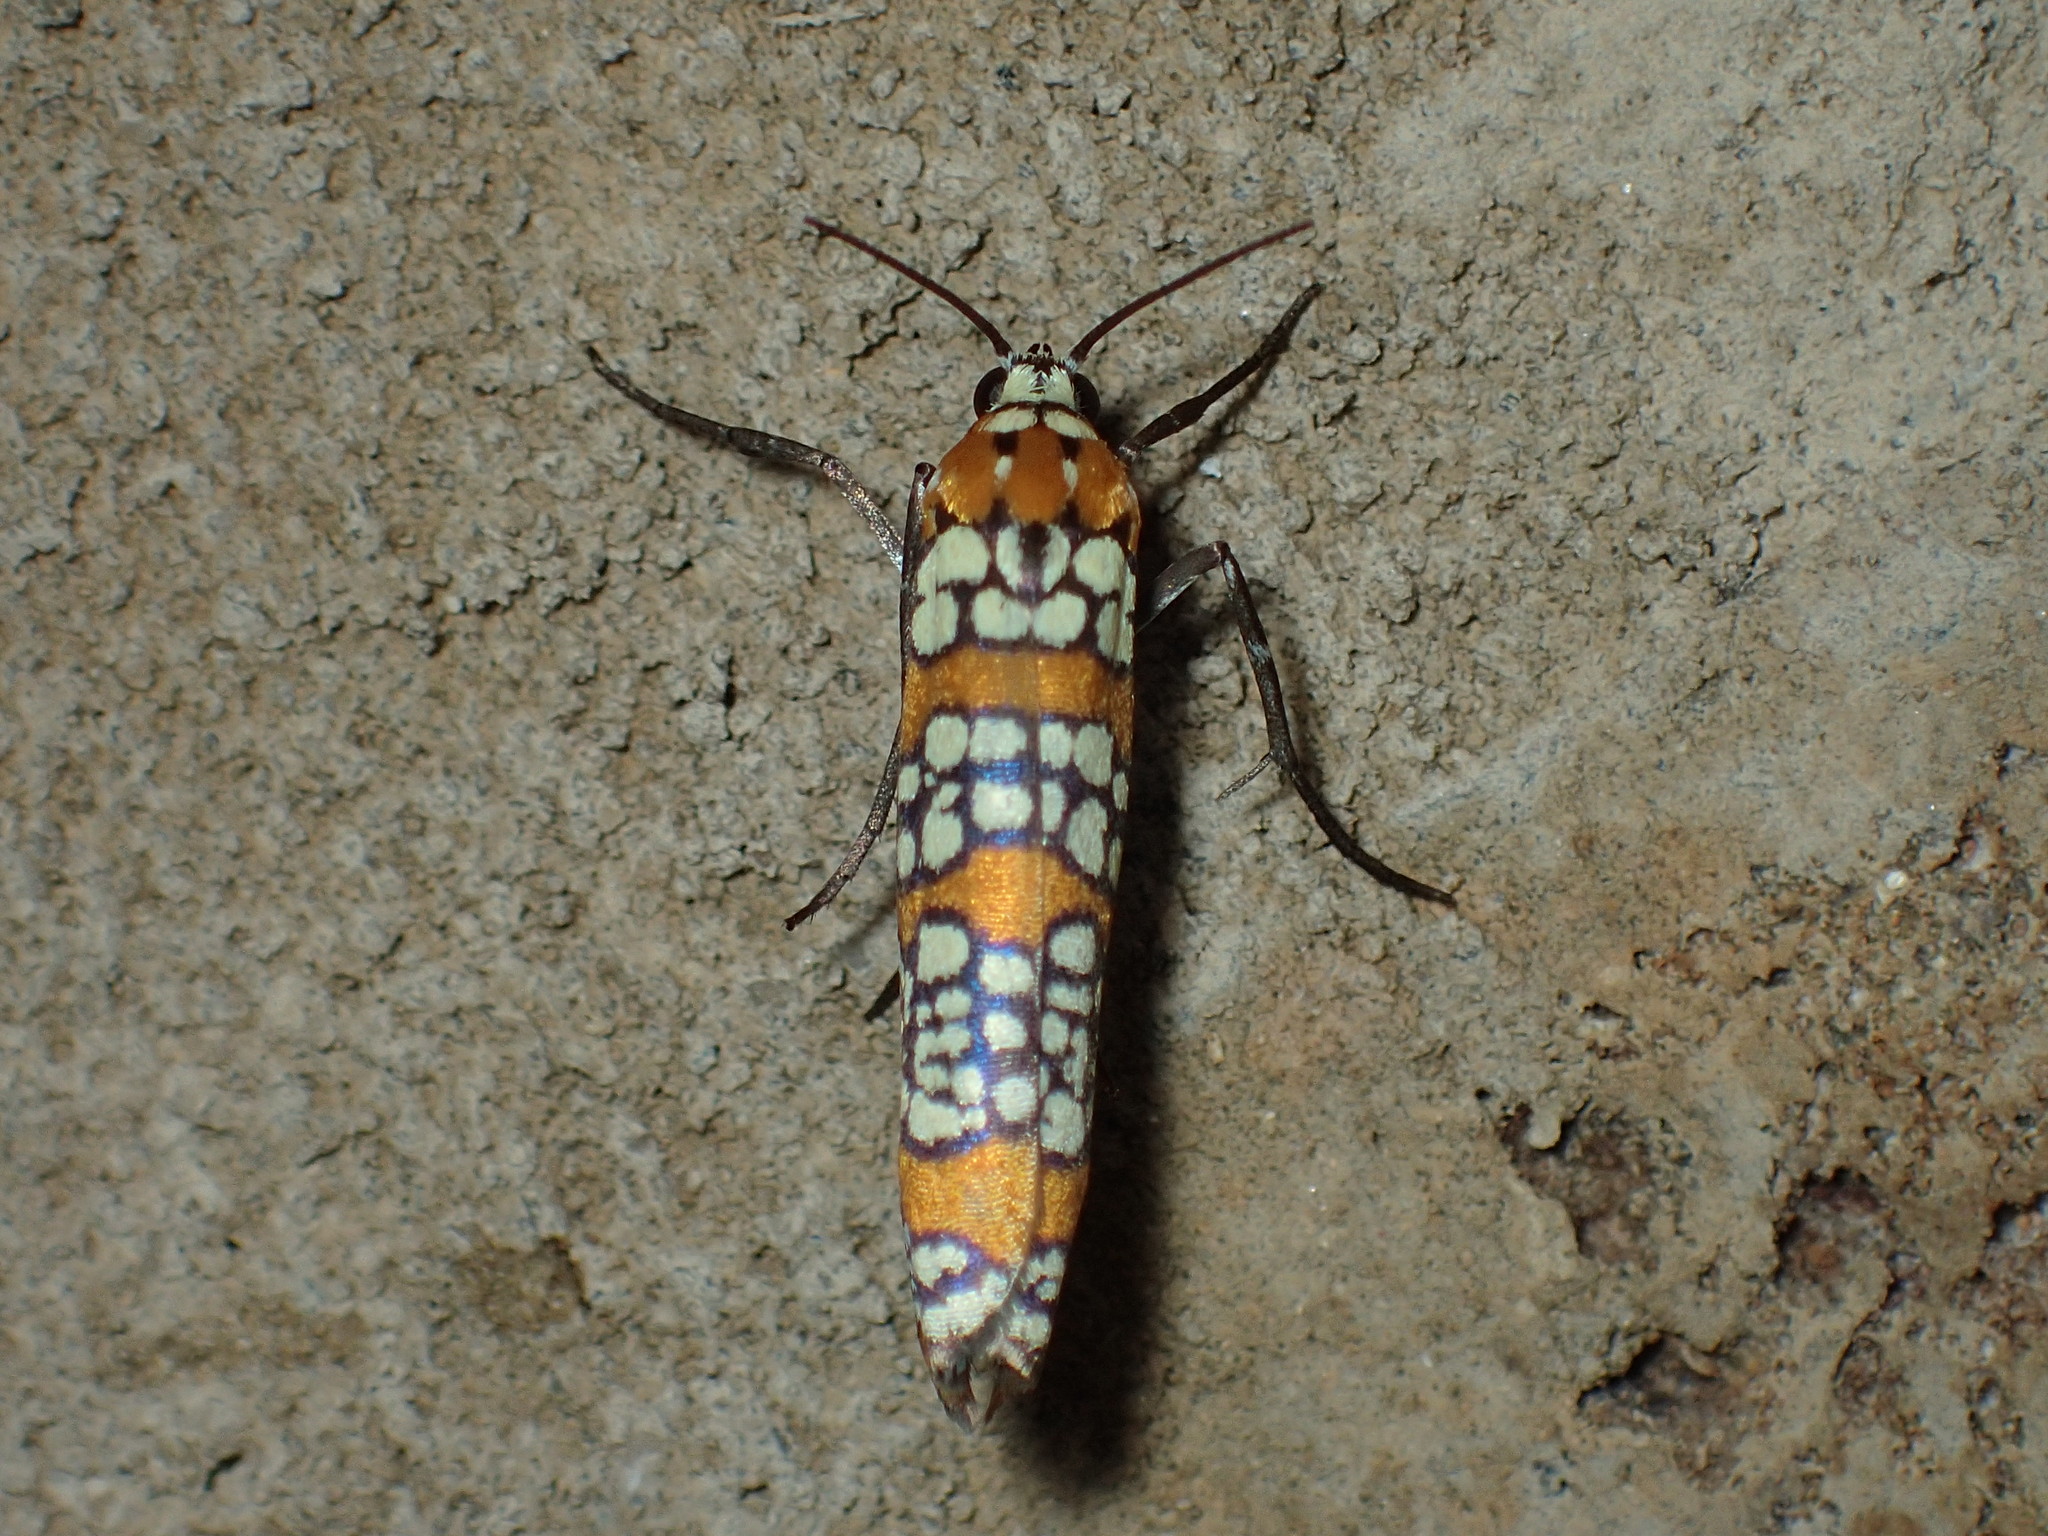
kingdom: Animalia
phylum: Arthropoda
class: Insecta
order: Lepidoptera
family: Attevidae
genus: Atteva
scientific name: Atteva punctella
